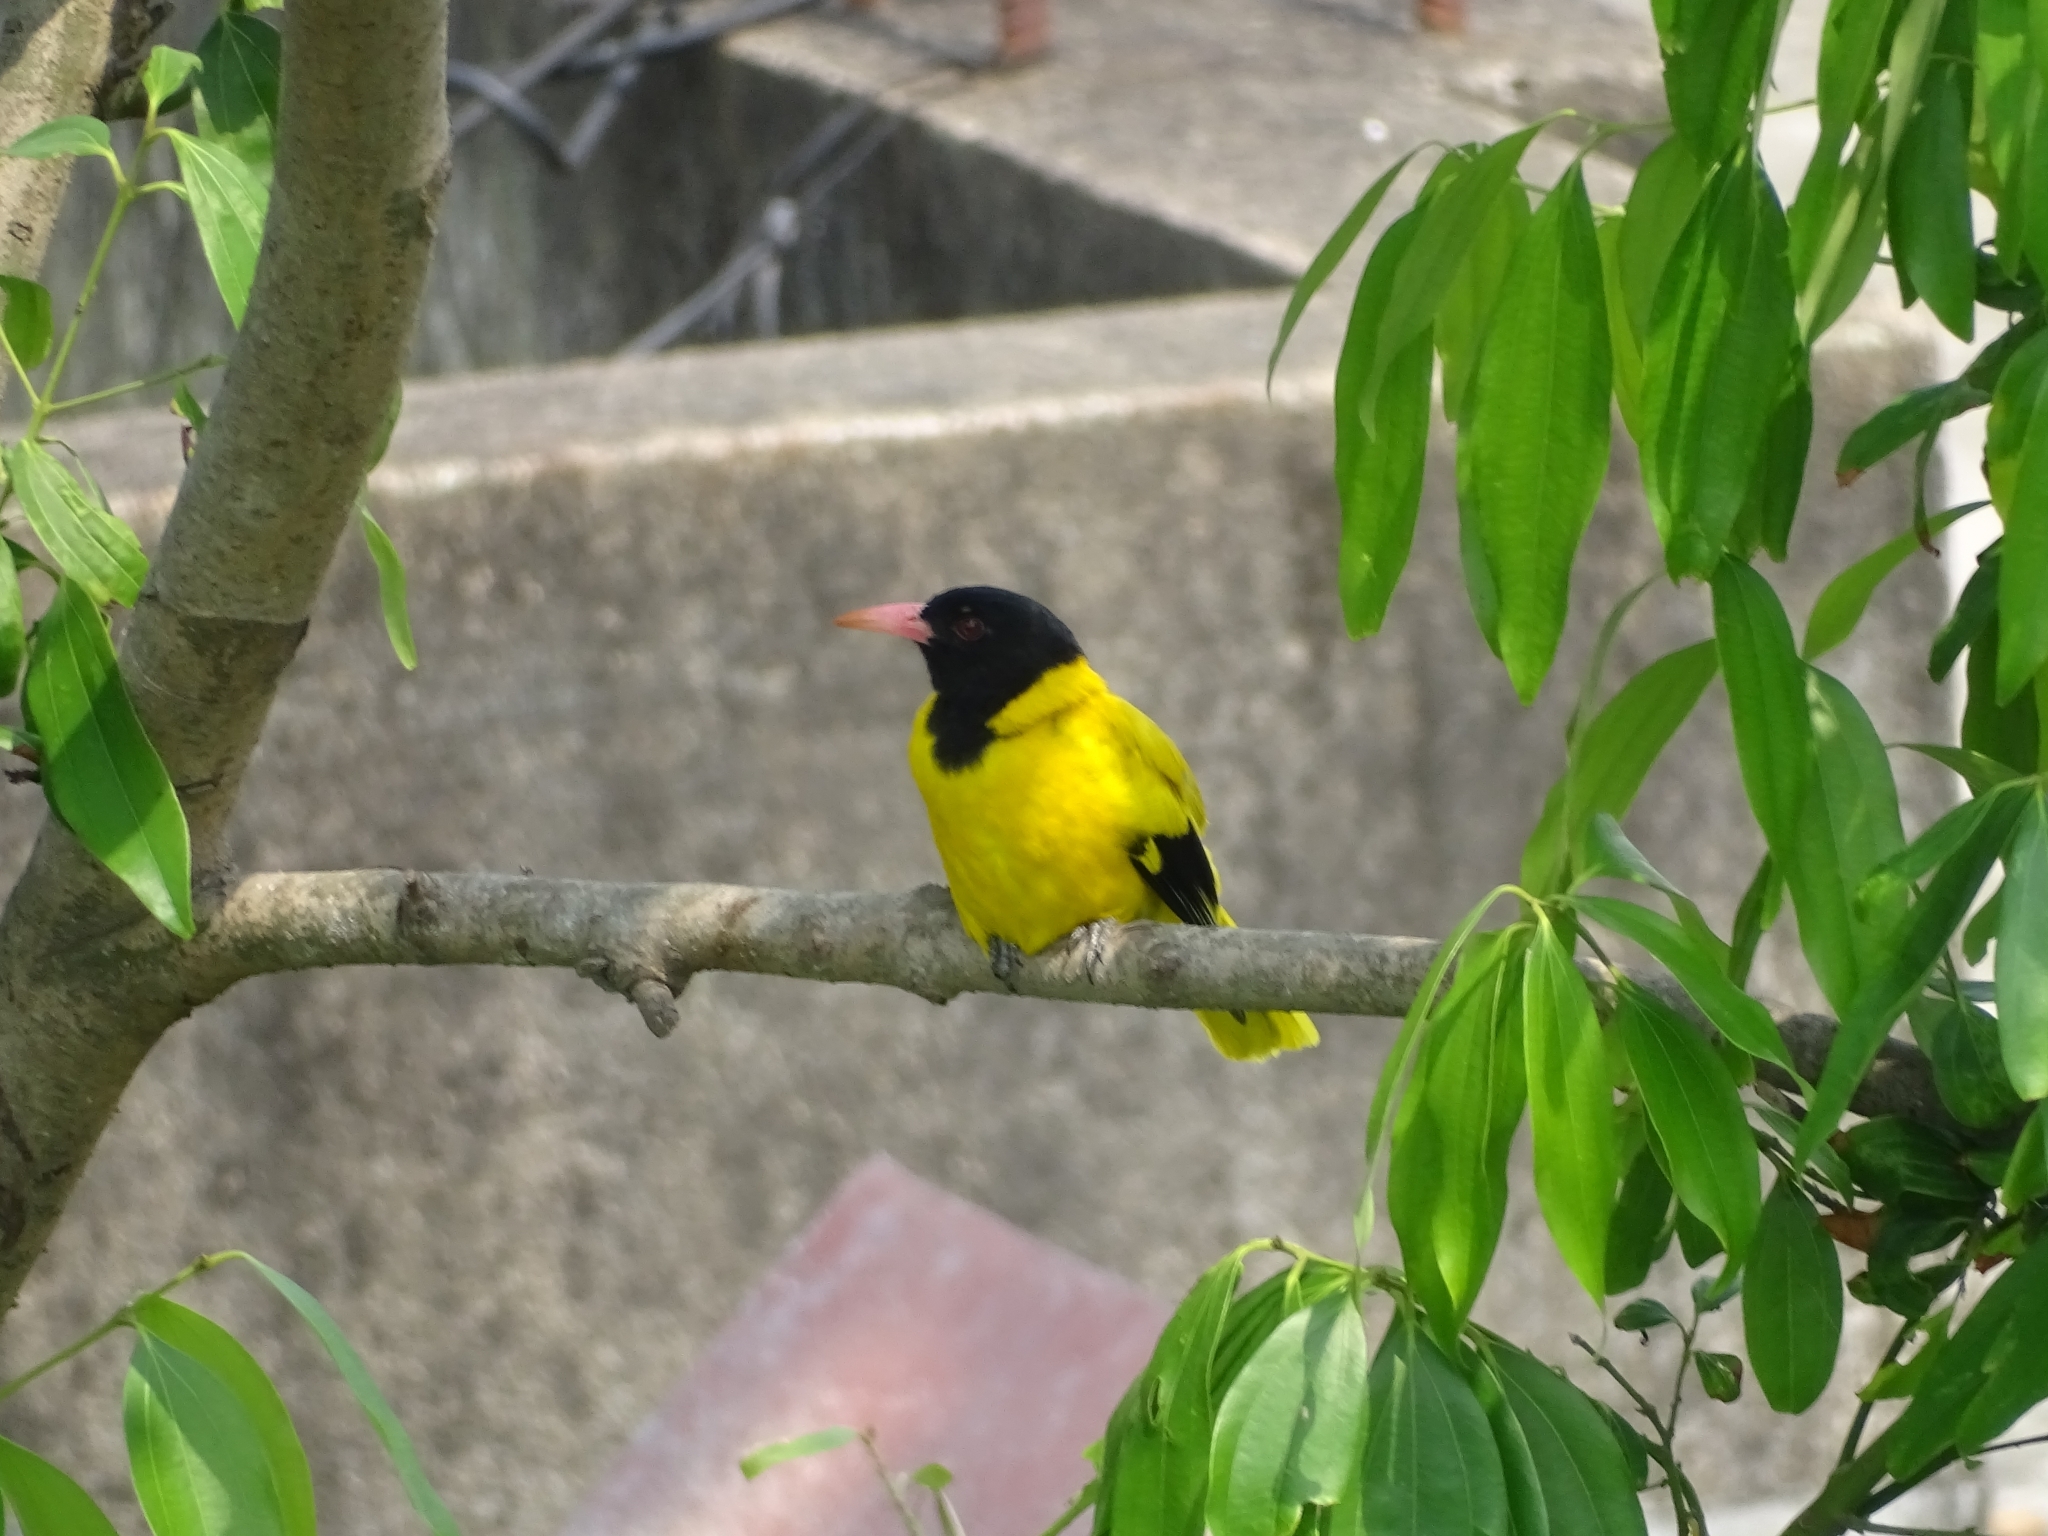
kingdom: Animalia
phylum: Chordata
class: Aves
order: Passeriformes
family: Oriolidae
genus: Oriolus
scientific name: Oriolus xanthornus
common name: Black-hooded oriole
